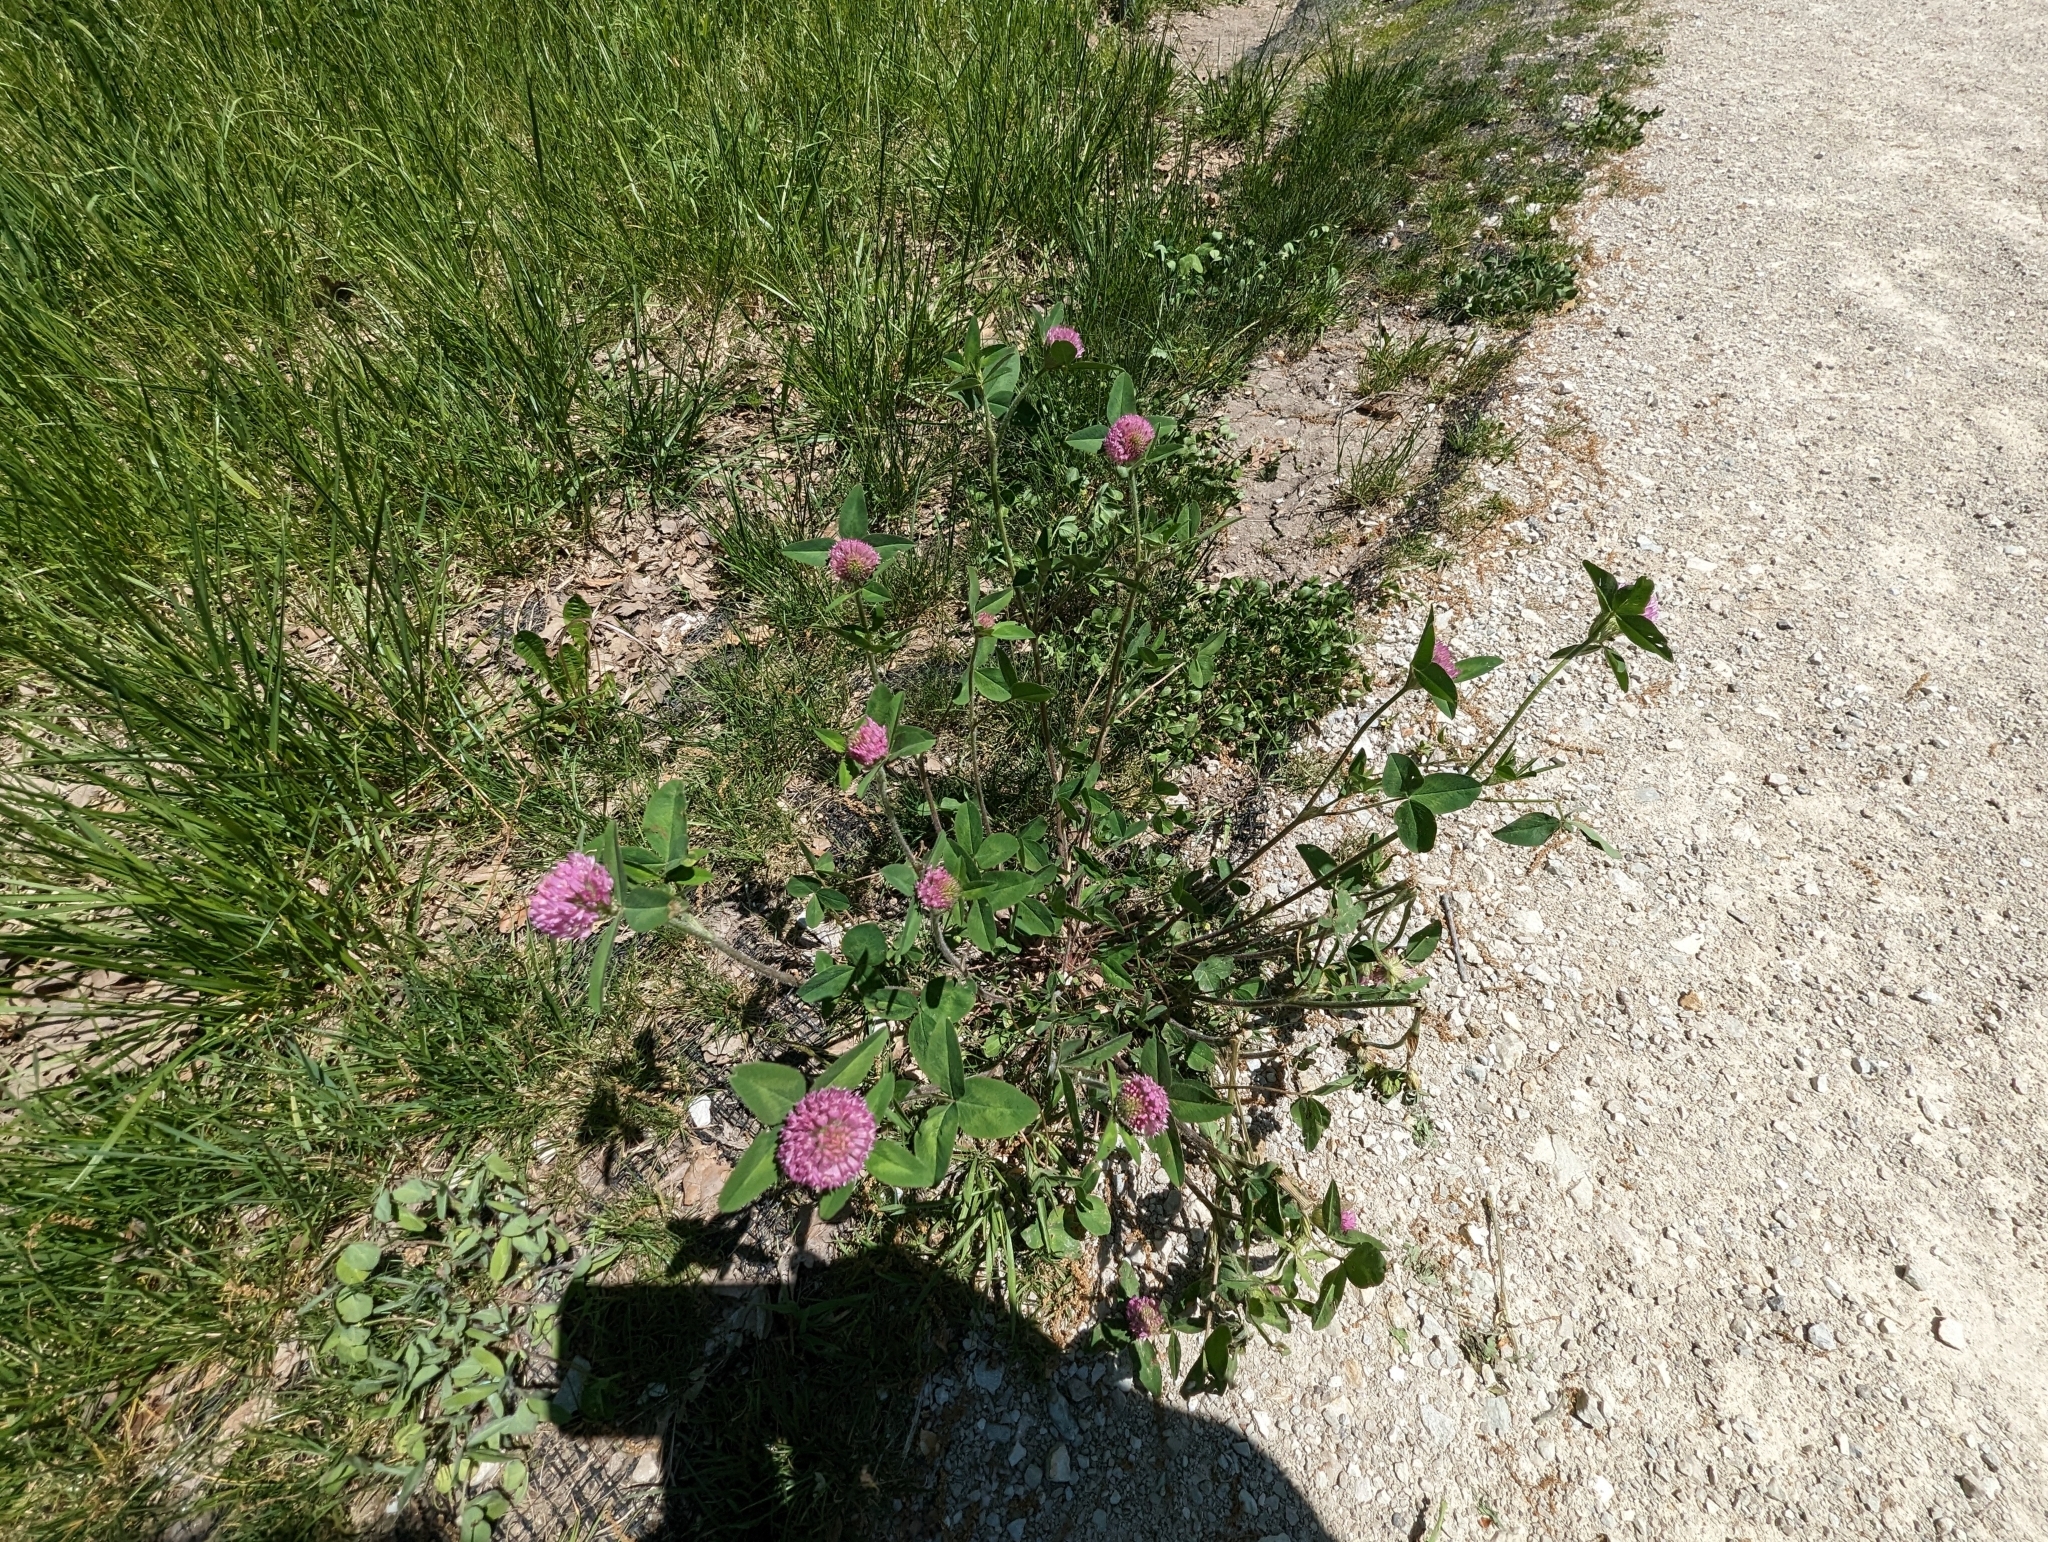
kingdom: Plantae
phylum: Tracheophyta
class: Magnoliopsida
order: Fabales
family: Fabaceae
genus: Trifolium
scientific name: Trifolium pratense
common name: Red clover
